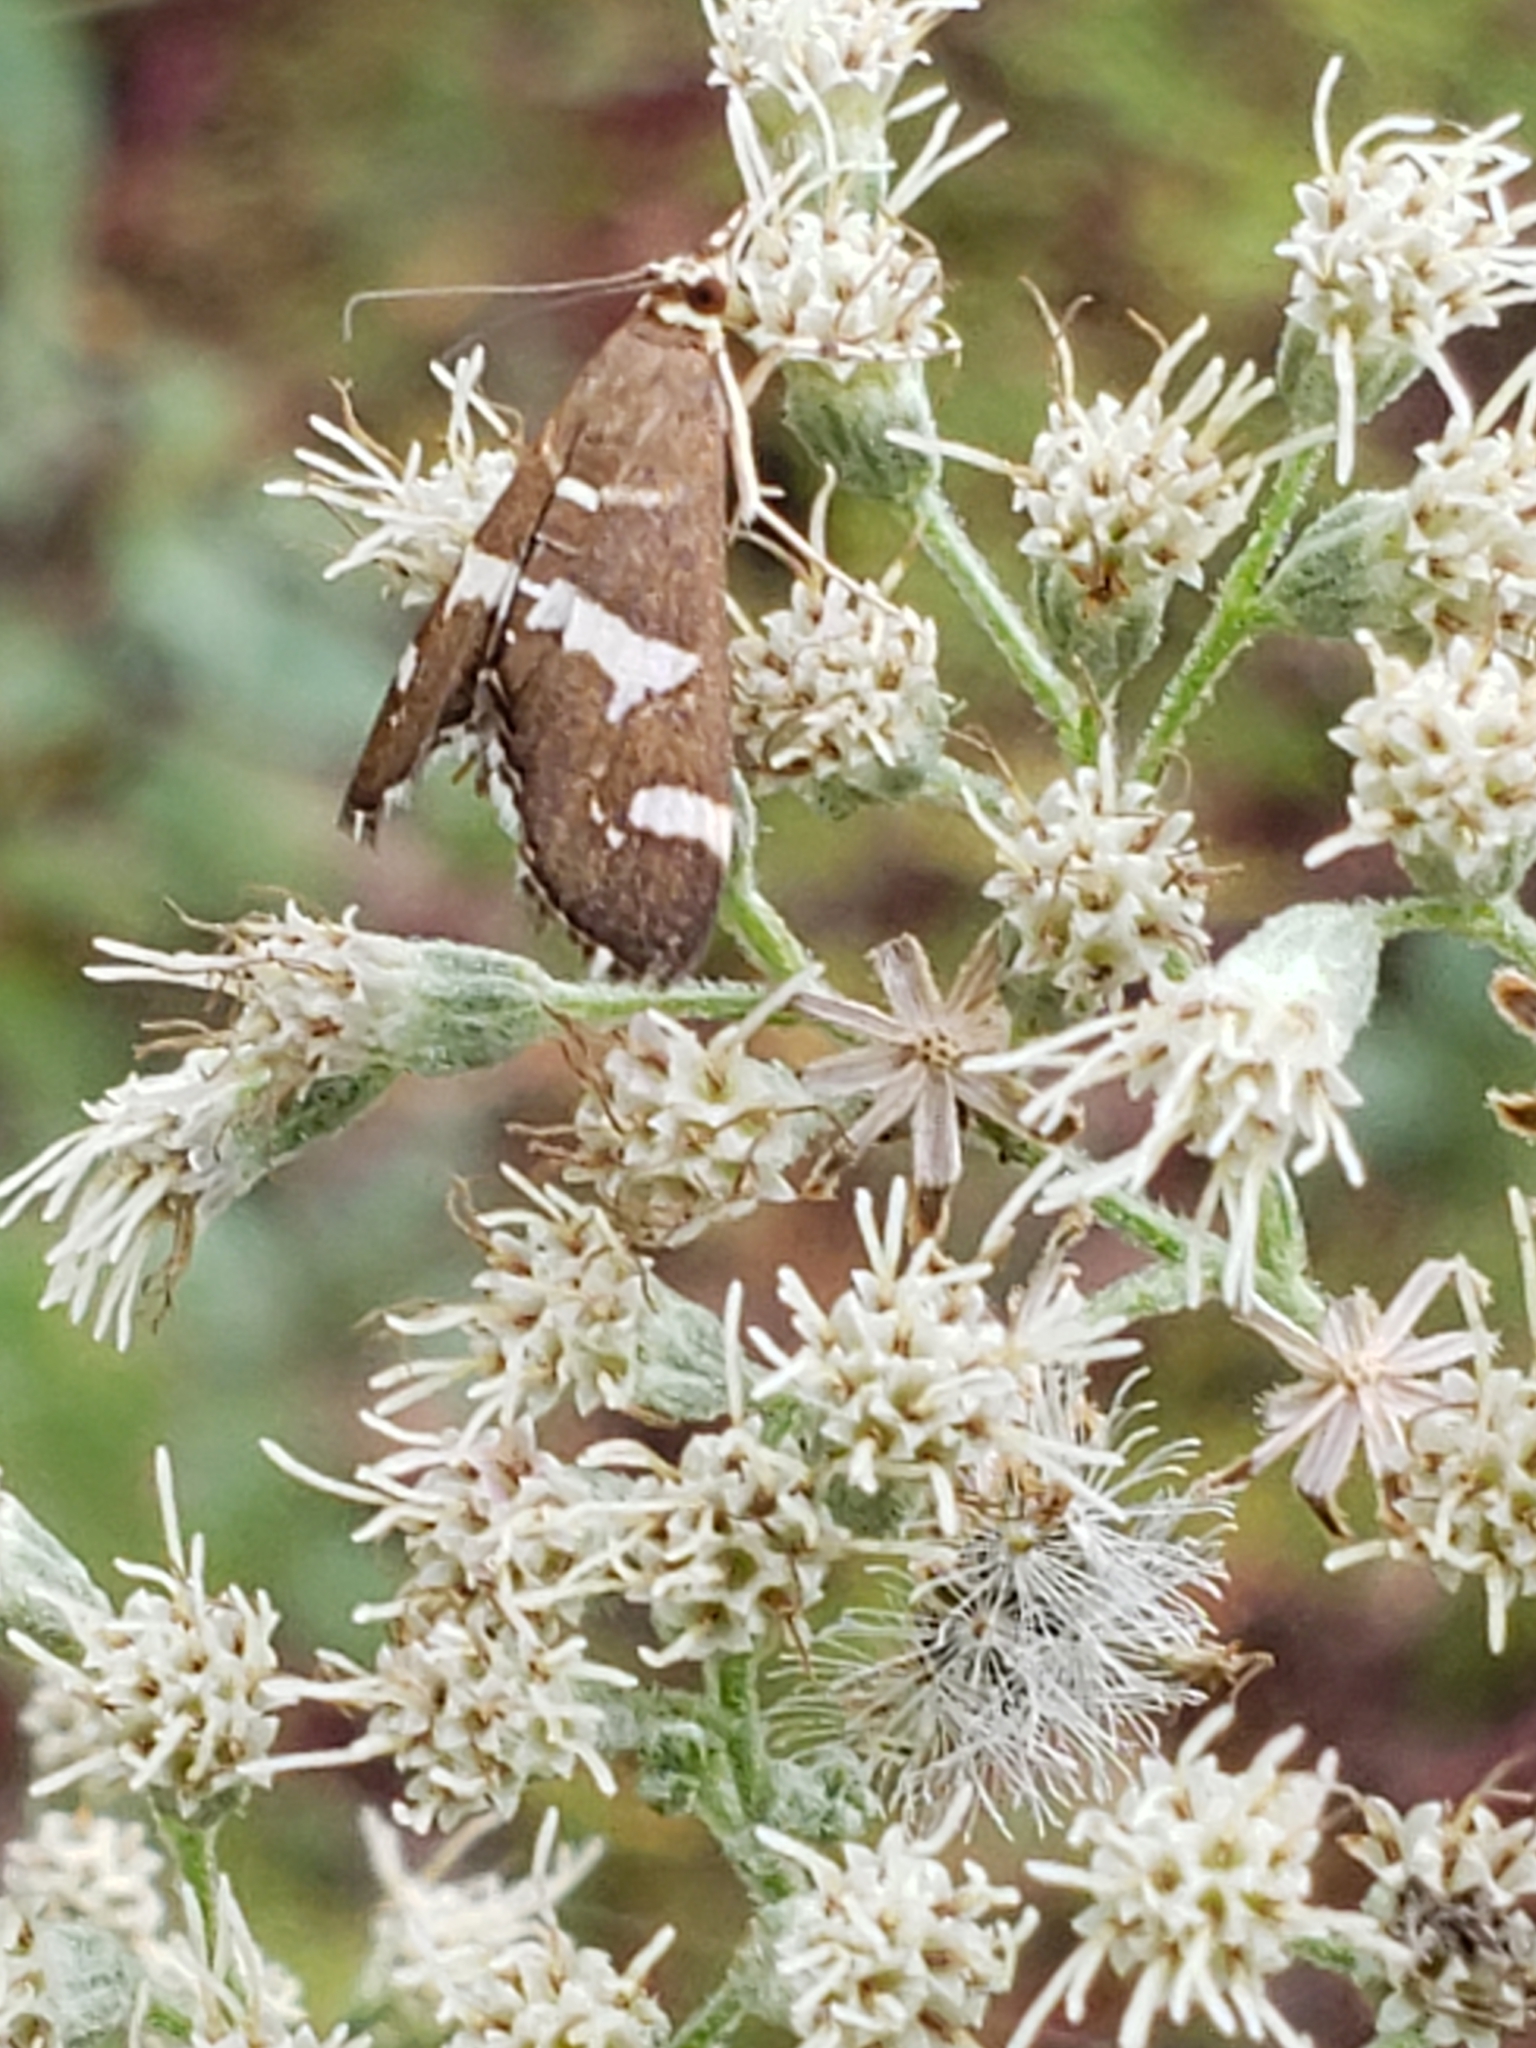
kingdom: Animalia
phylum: Arthropoda
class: Insecta
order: Lepidoptera
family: Crambidae
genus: Spoladea
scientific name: Spoladea recurvalis
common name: Beet webworm moth
